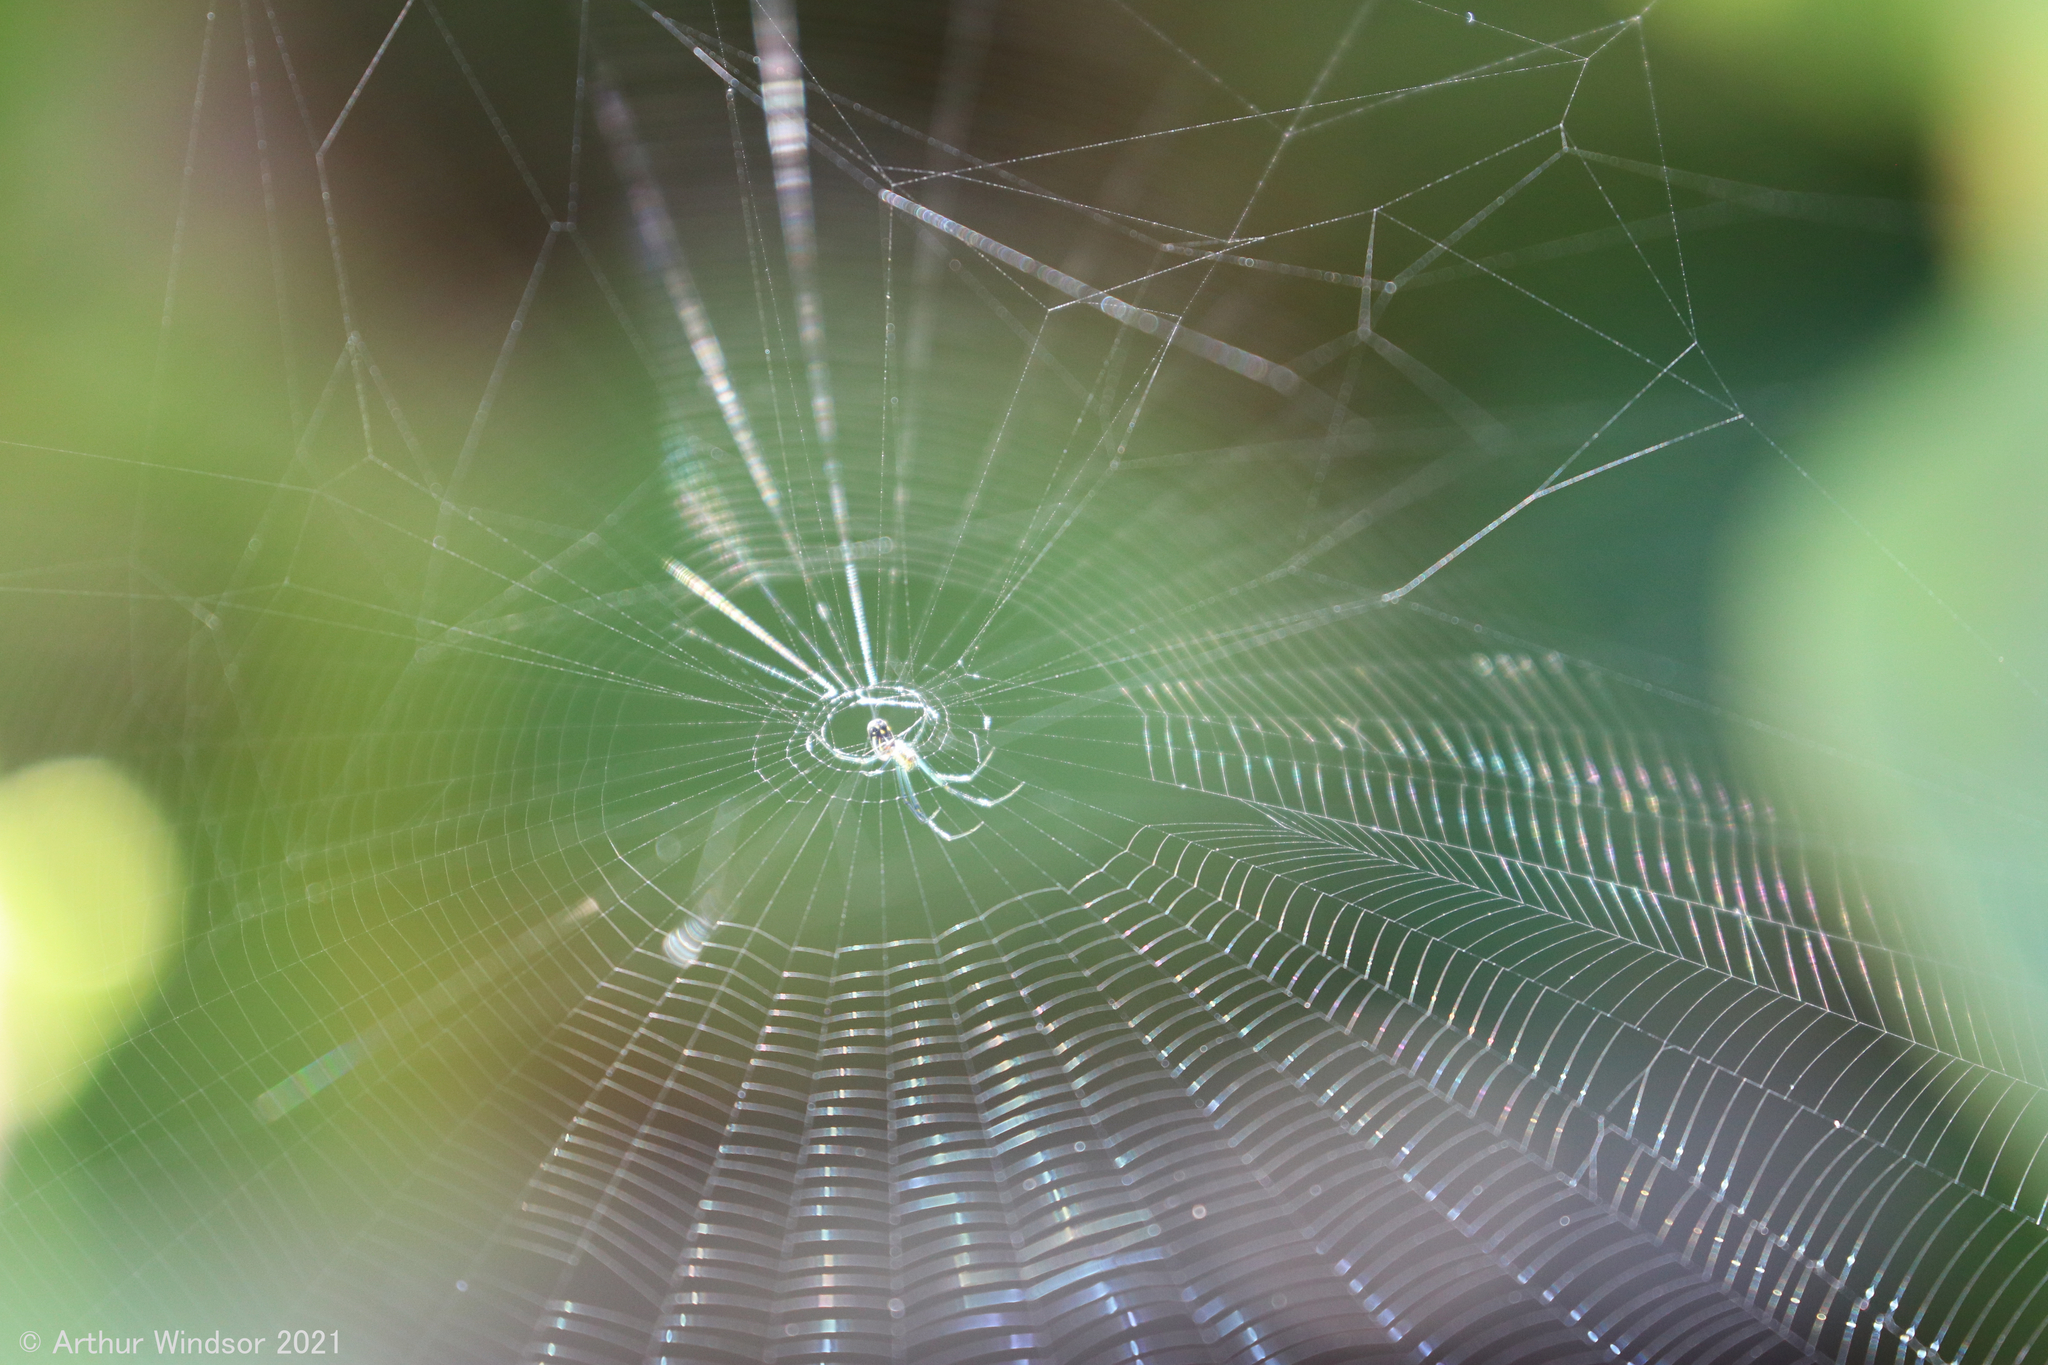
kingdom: Animalia
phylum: Arthropoda
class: Arachnida
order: Araneae
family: Tetragnathidae
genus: Leucauge
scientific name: Leucauge argyra
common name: Longjawed orb weavers
